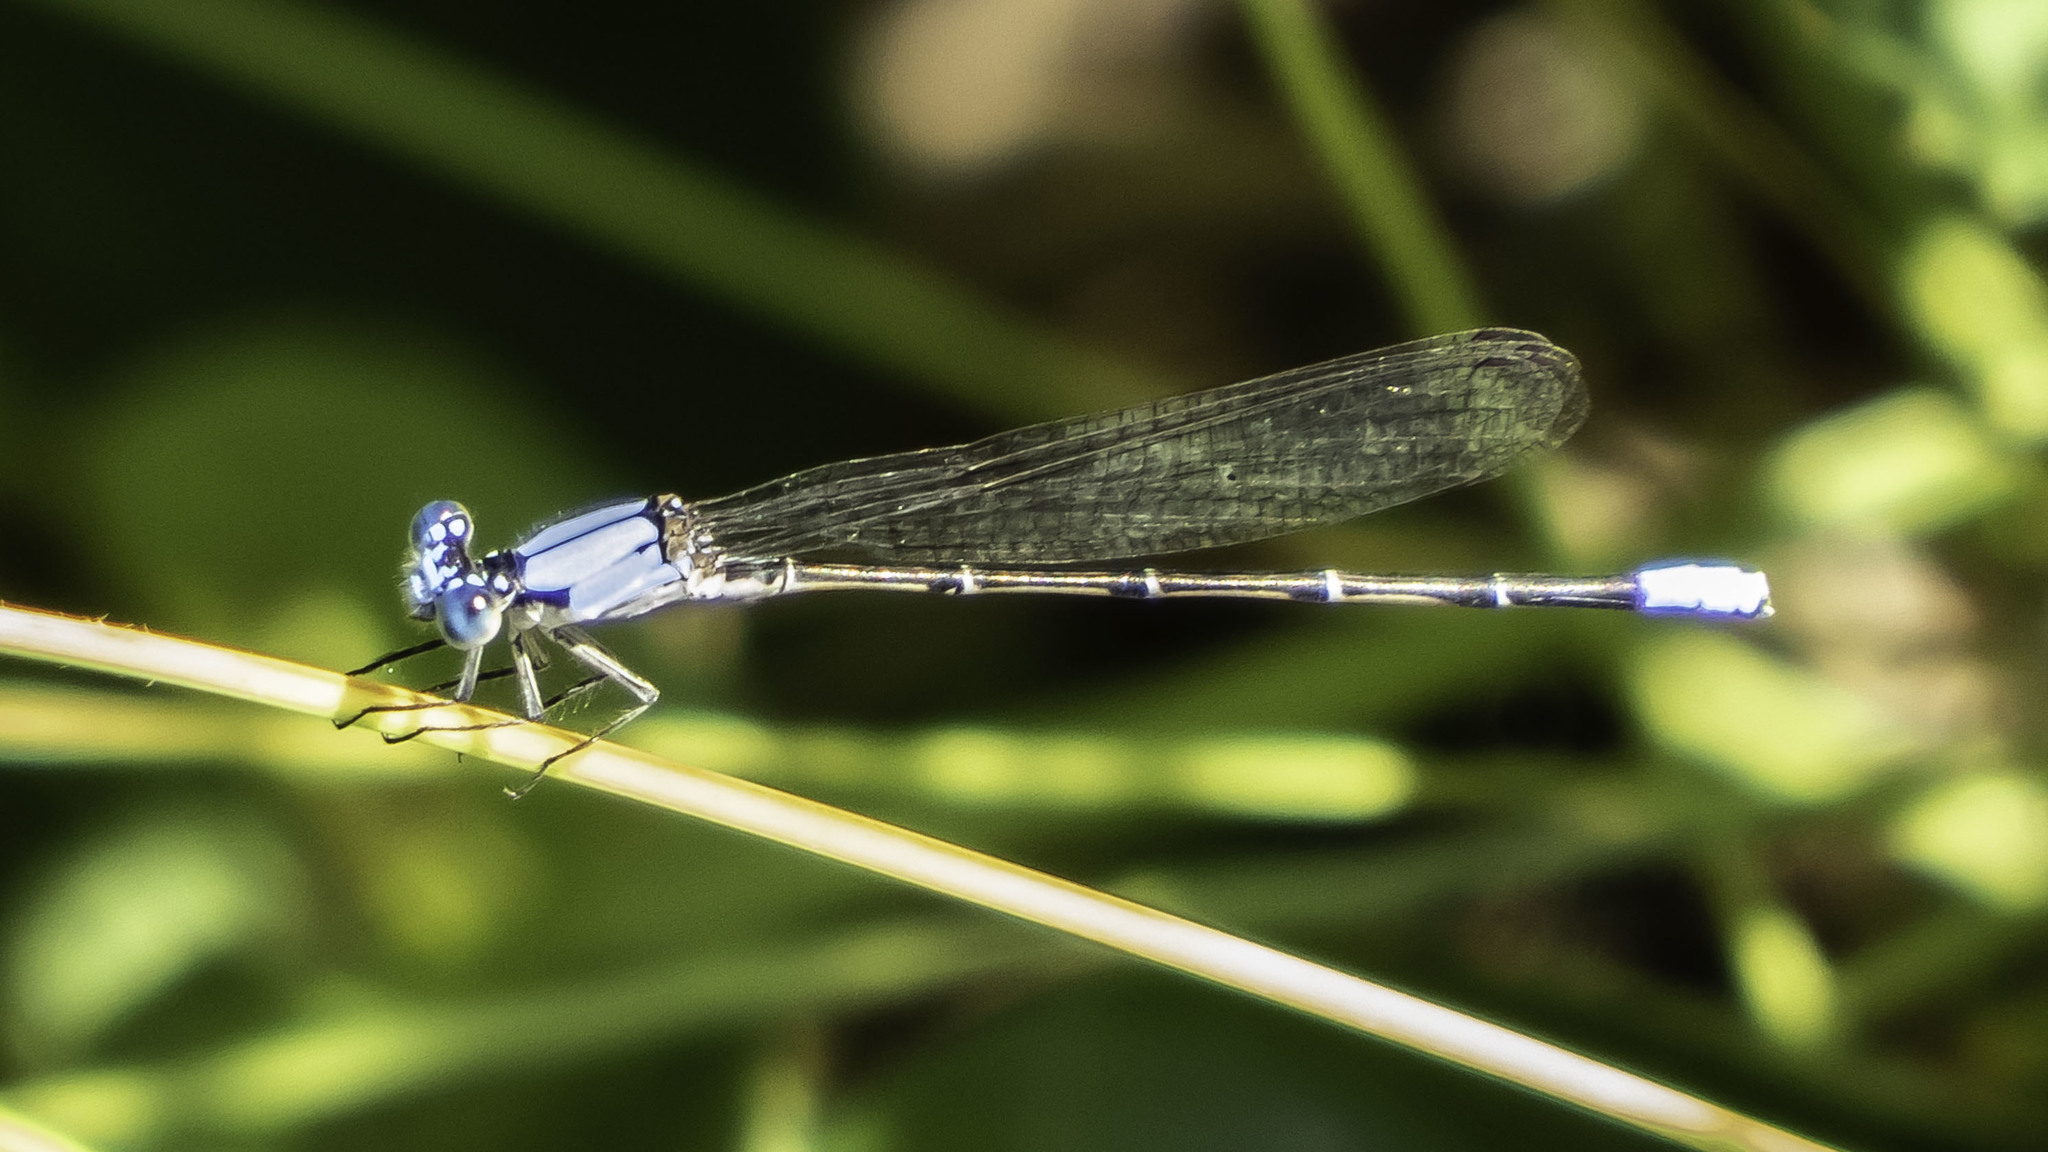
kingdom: Animalia
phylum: Arthropoda
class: Insecta
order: Odonata
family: Coenagrionidae
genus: Argia
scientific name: Argia apicalis
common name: Blue-fronted dancer
